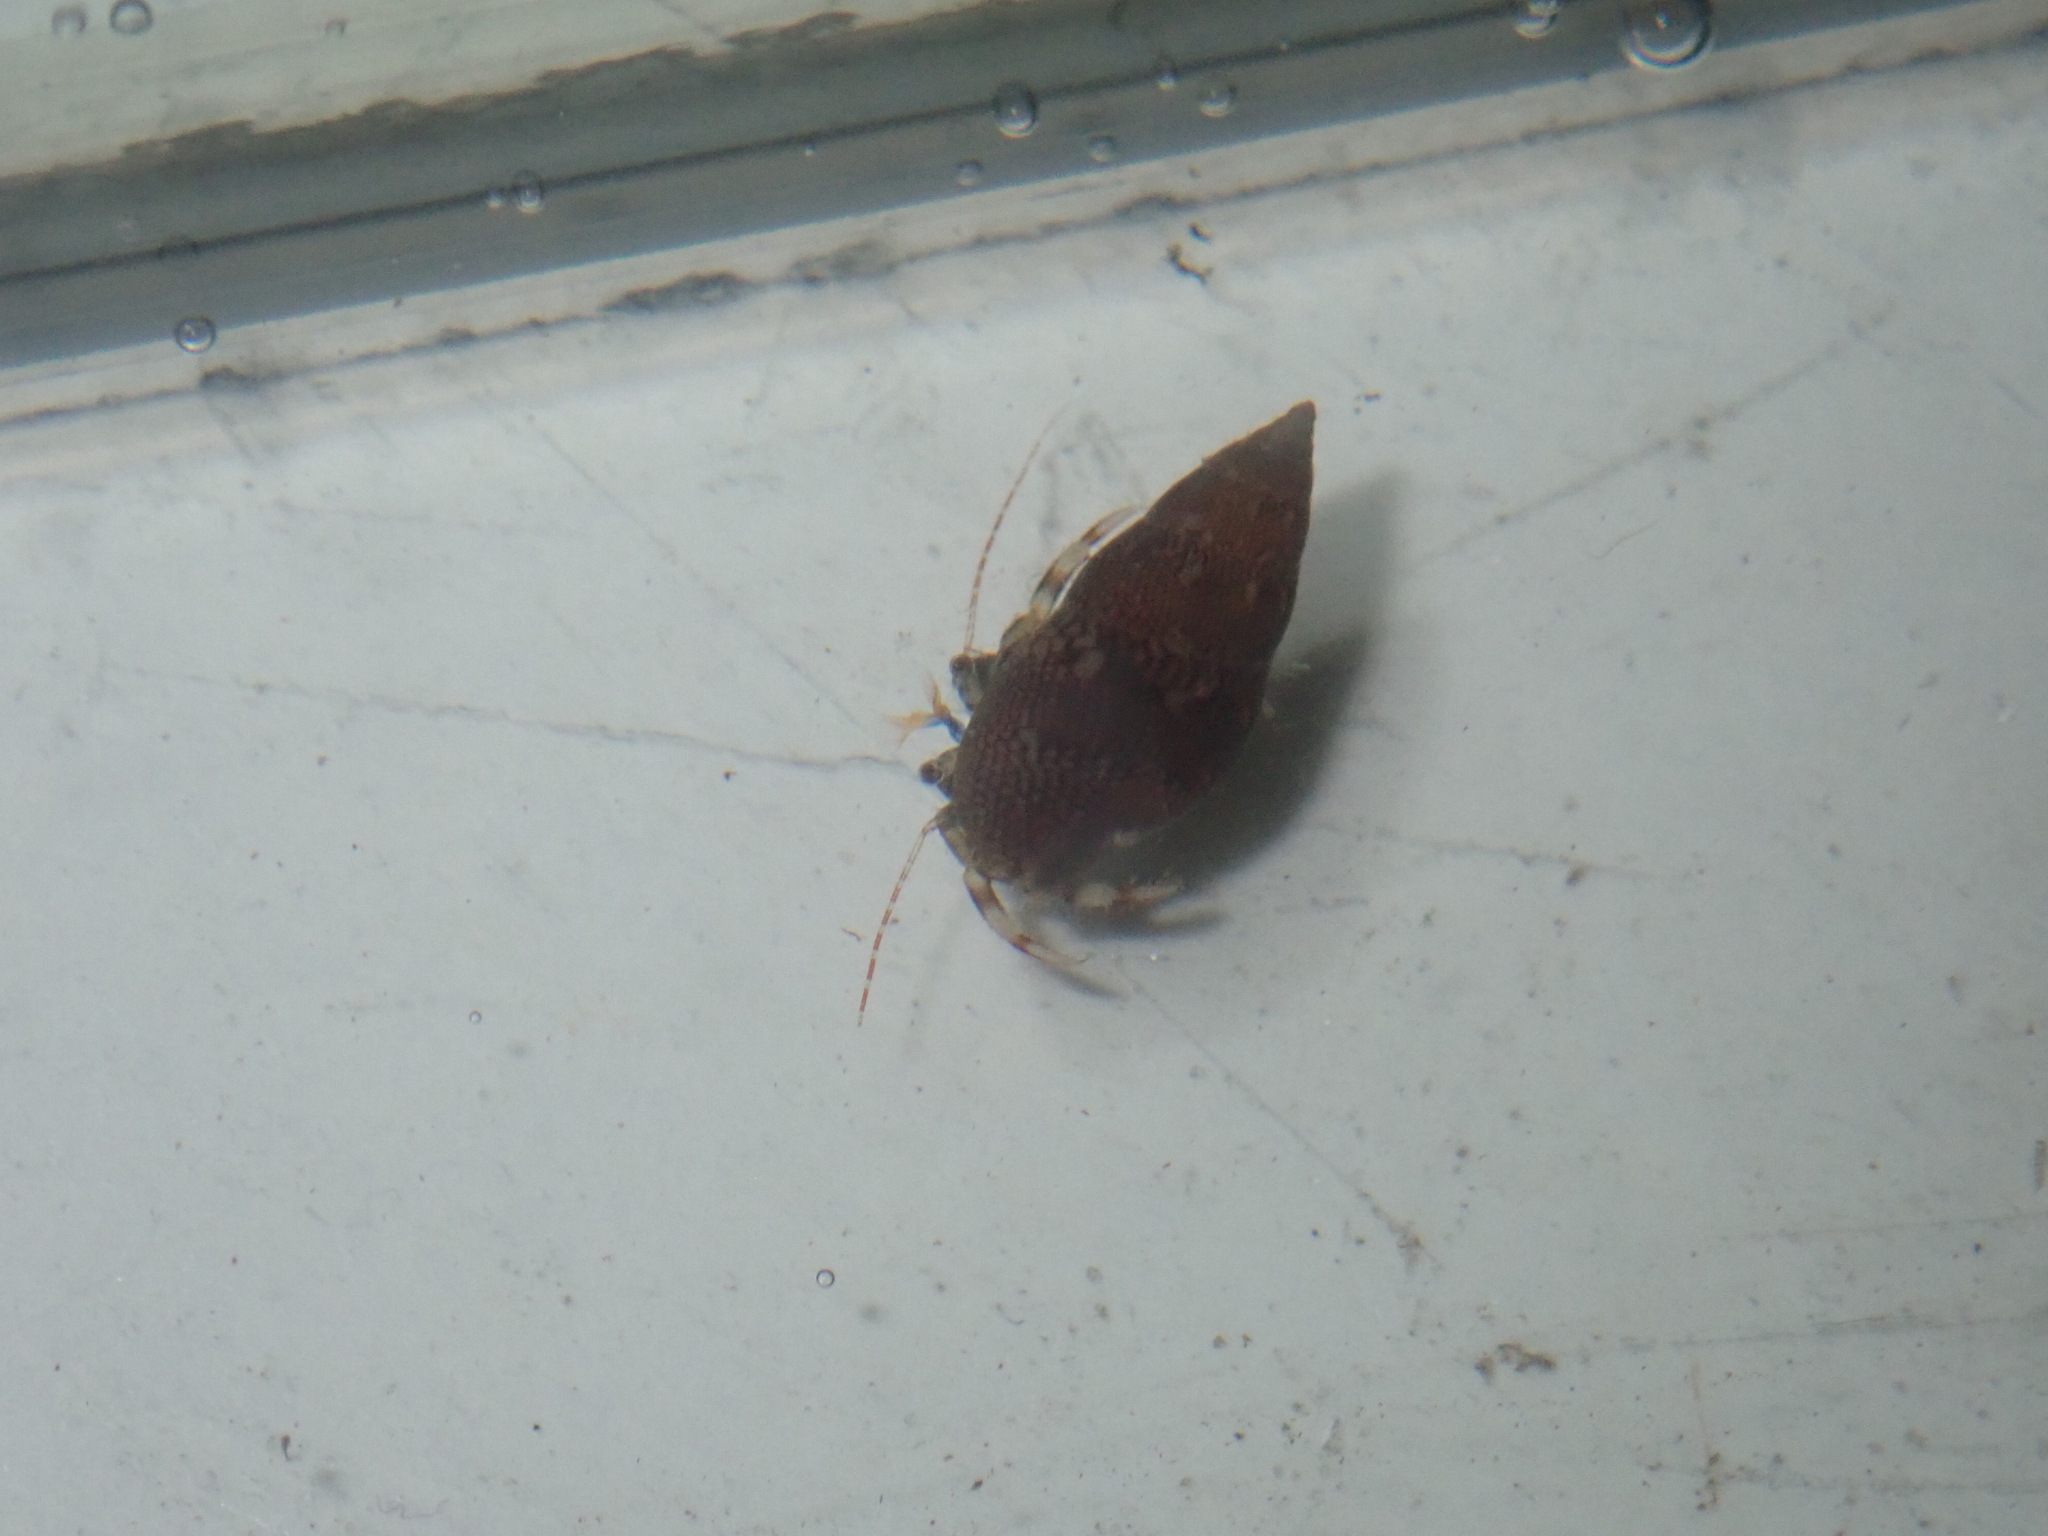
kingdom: Animalia
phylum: Arthropoda
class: Malacostraca
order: Decapoda
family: Paguridae
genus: Pagurixus
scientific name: Pagurixus jerviensis
